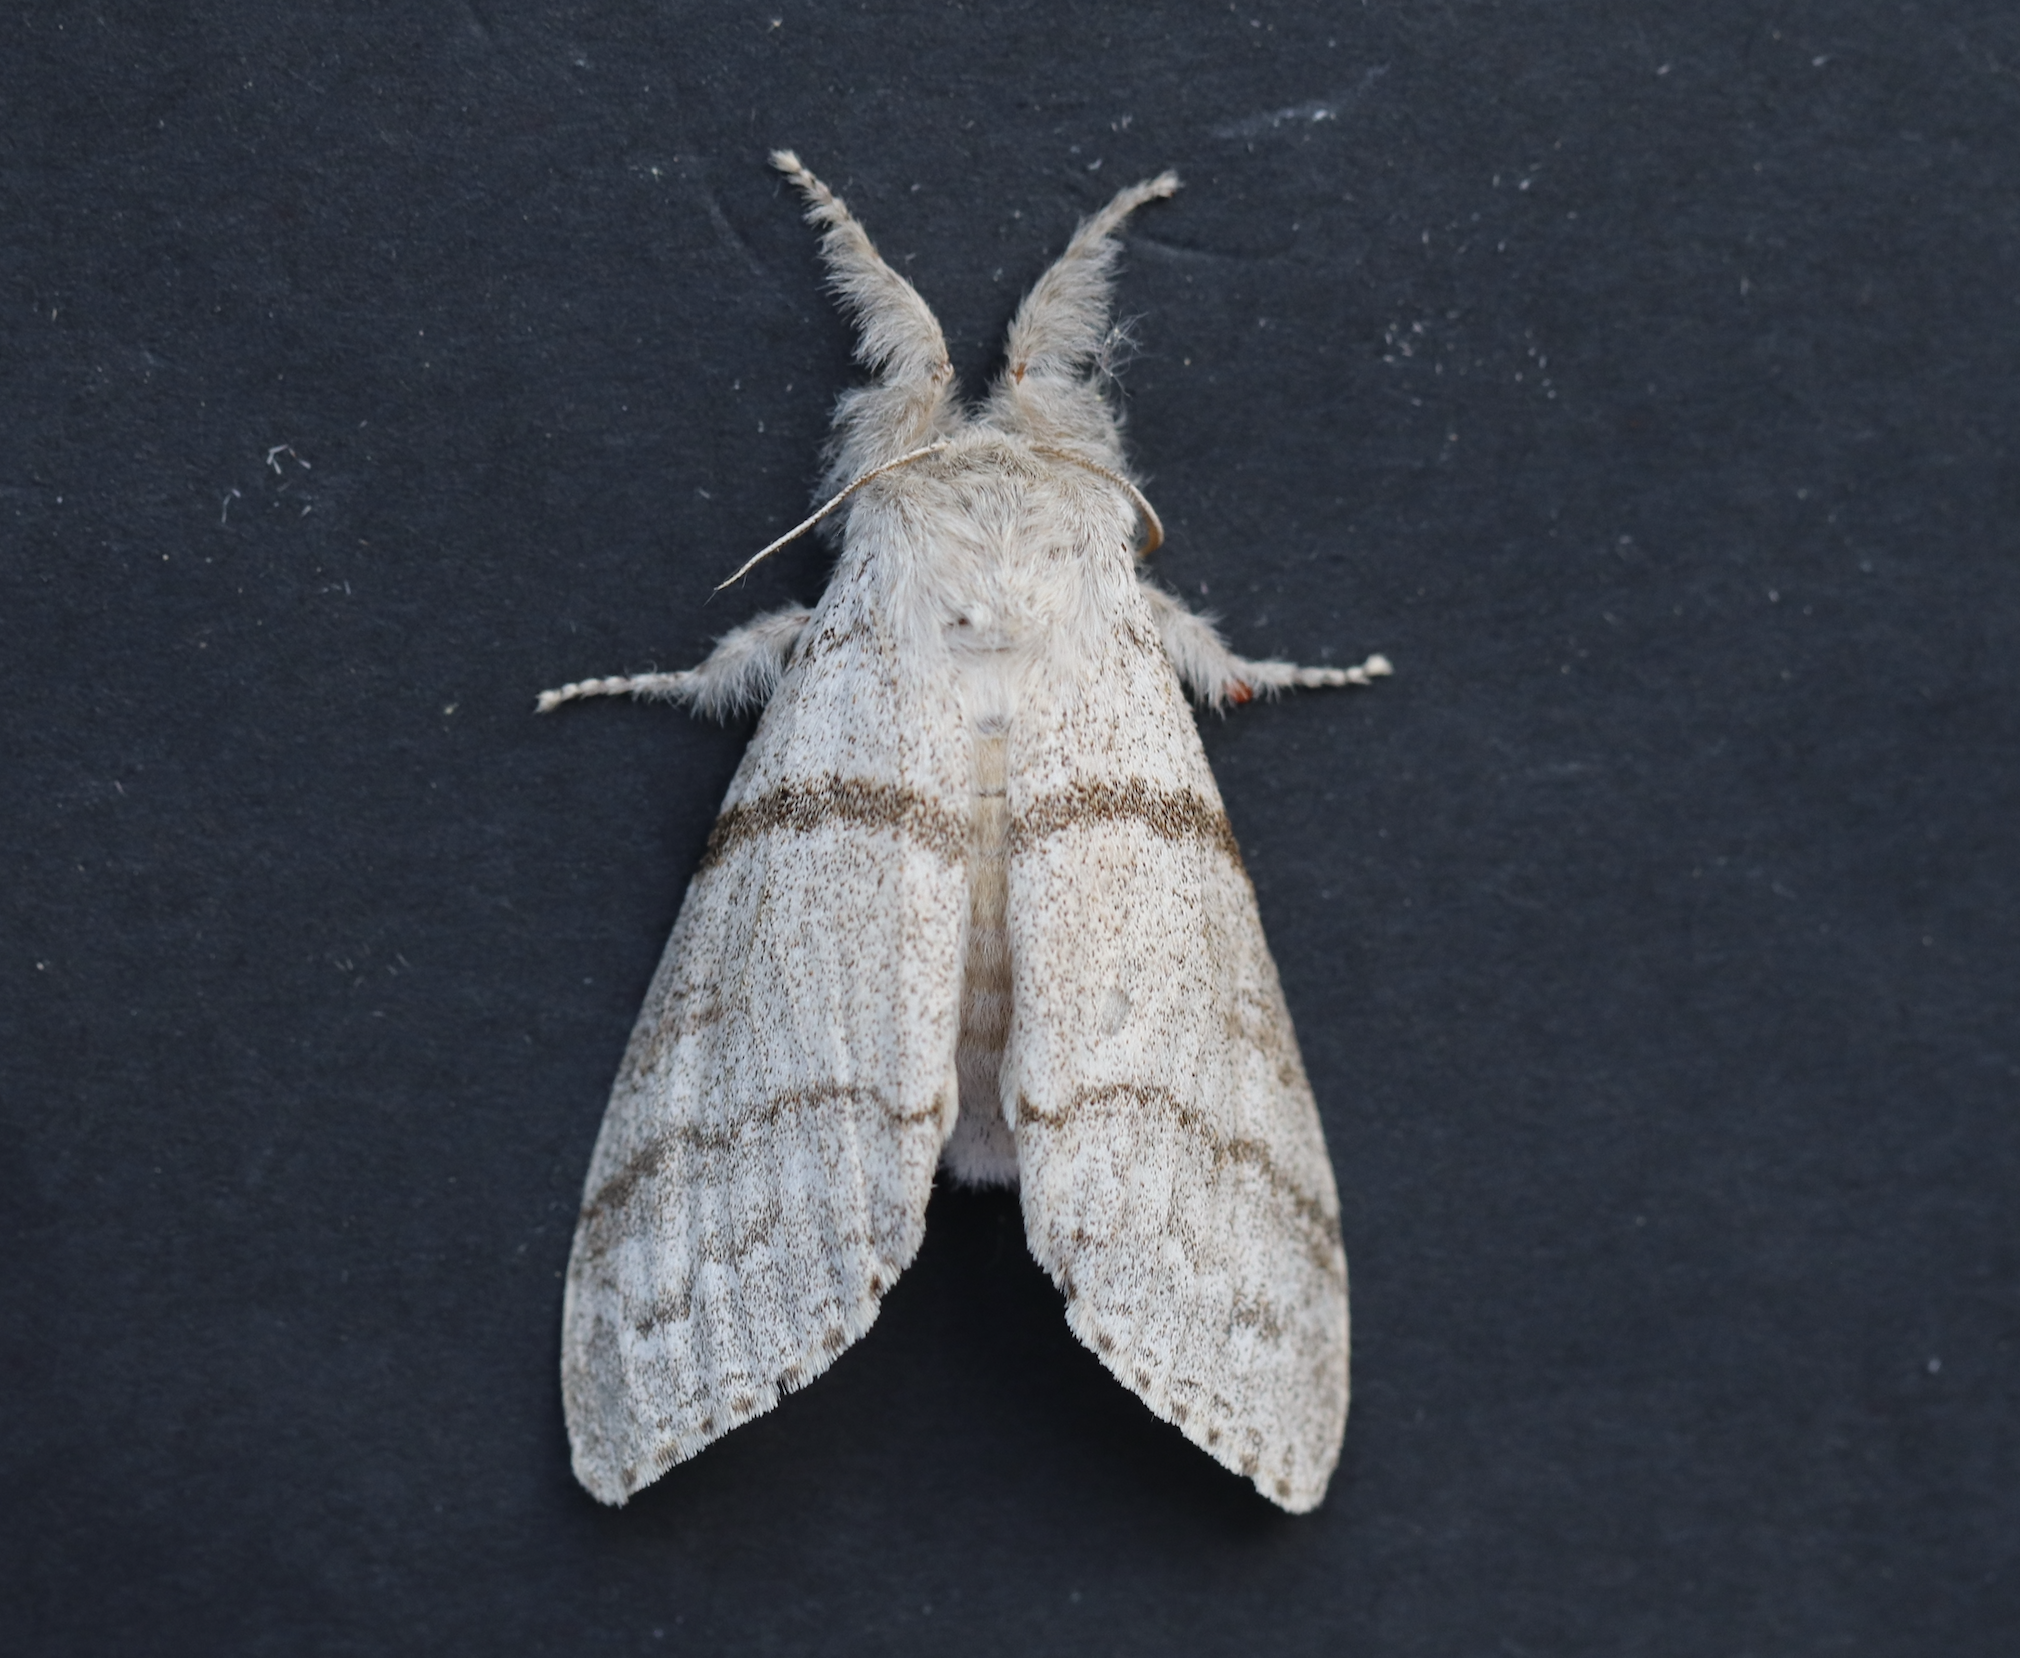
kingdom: Animalia
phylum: Arthropoda
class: Insecta
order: Lepidoptera
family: Erebidae
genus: Calliteara
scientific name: Calliteara pudibunda
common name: Pale tussock
